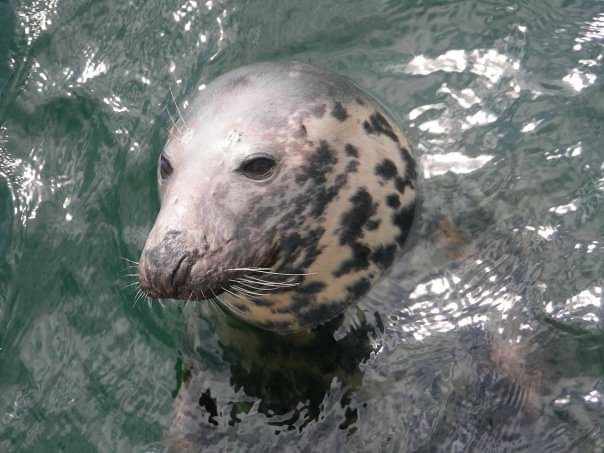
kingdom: Animalia
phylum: Chordata
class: Mammalia
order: Carnivora
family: Phocidae
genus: Halichoerus
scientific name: Halichoerus grypus
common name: Grey seal
